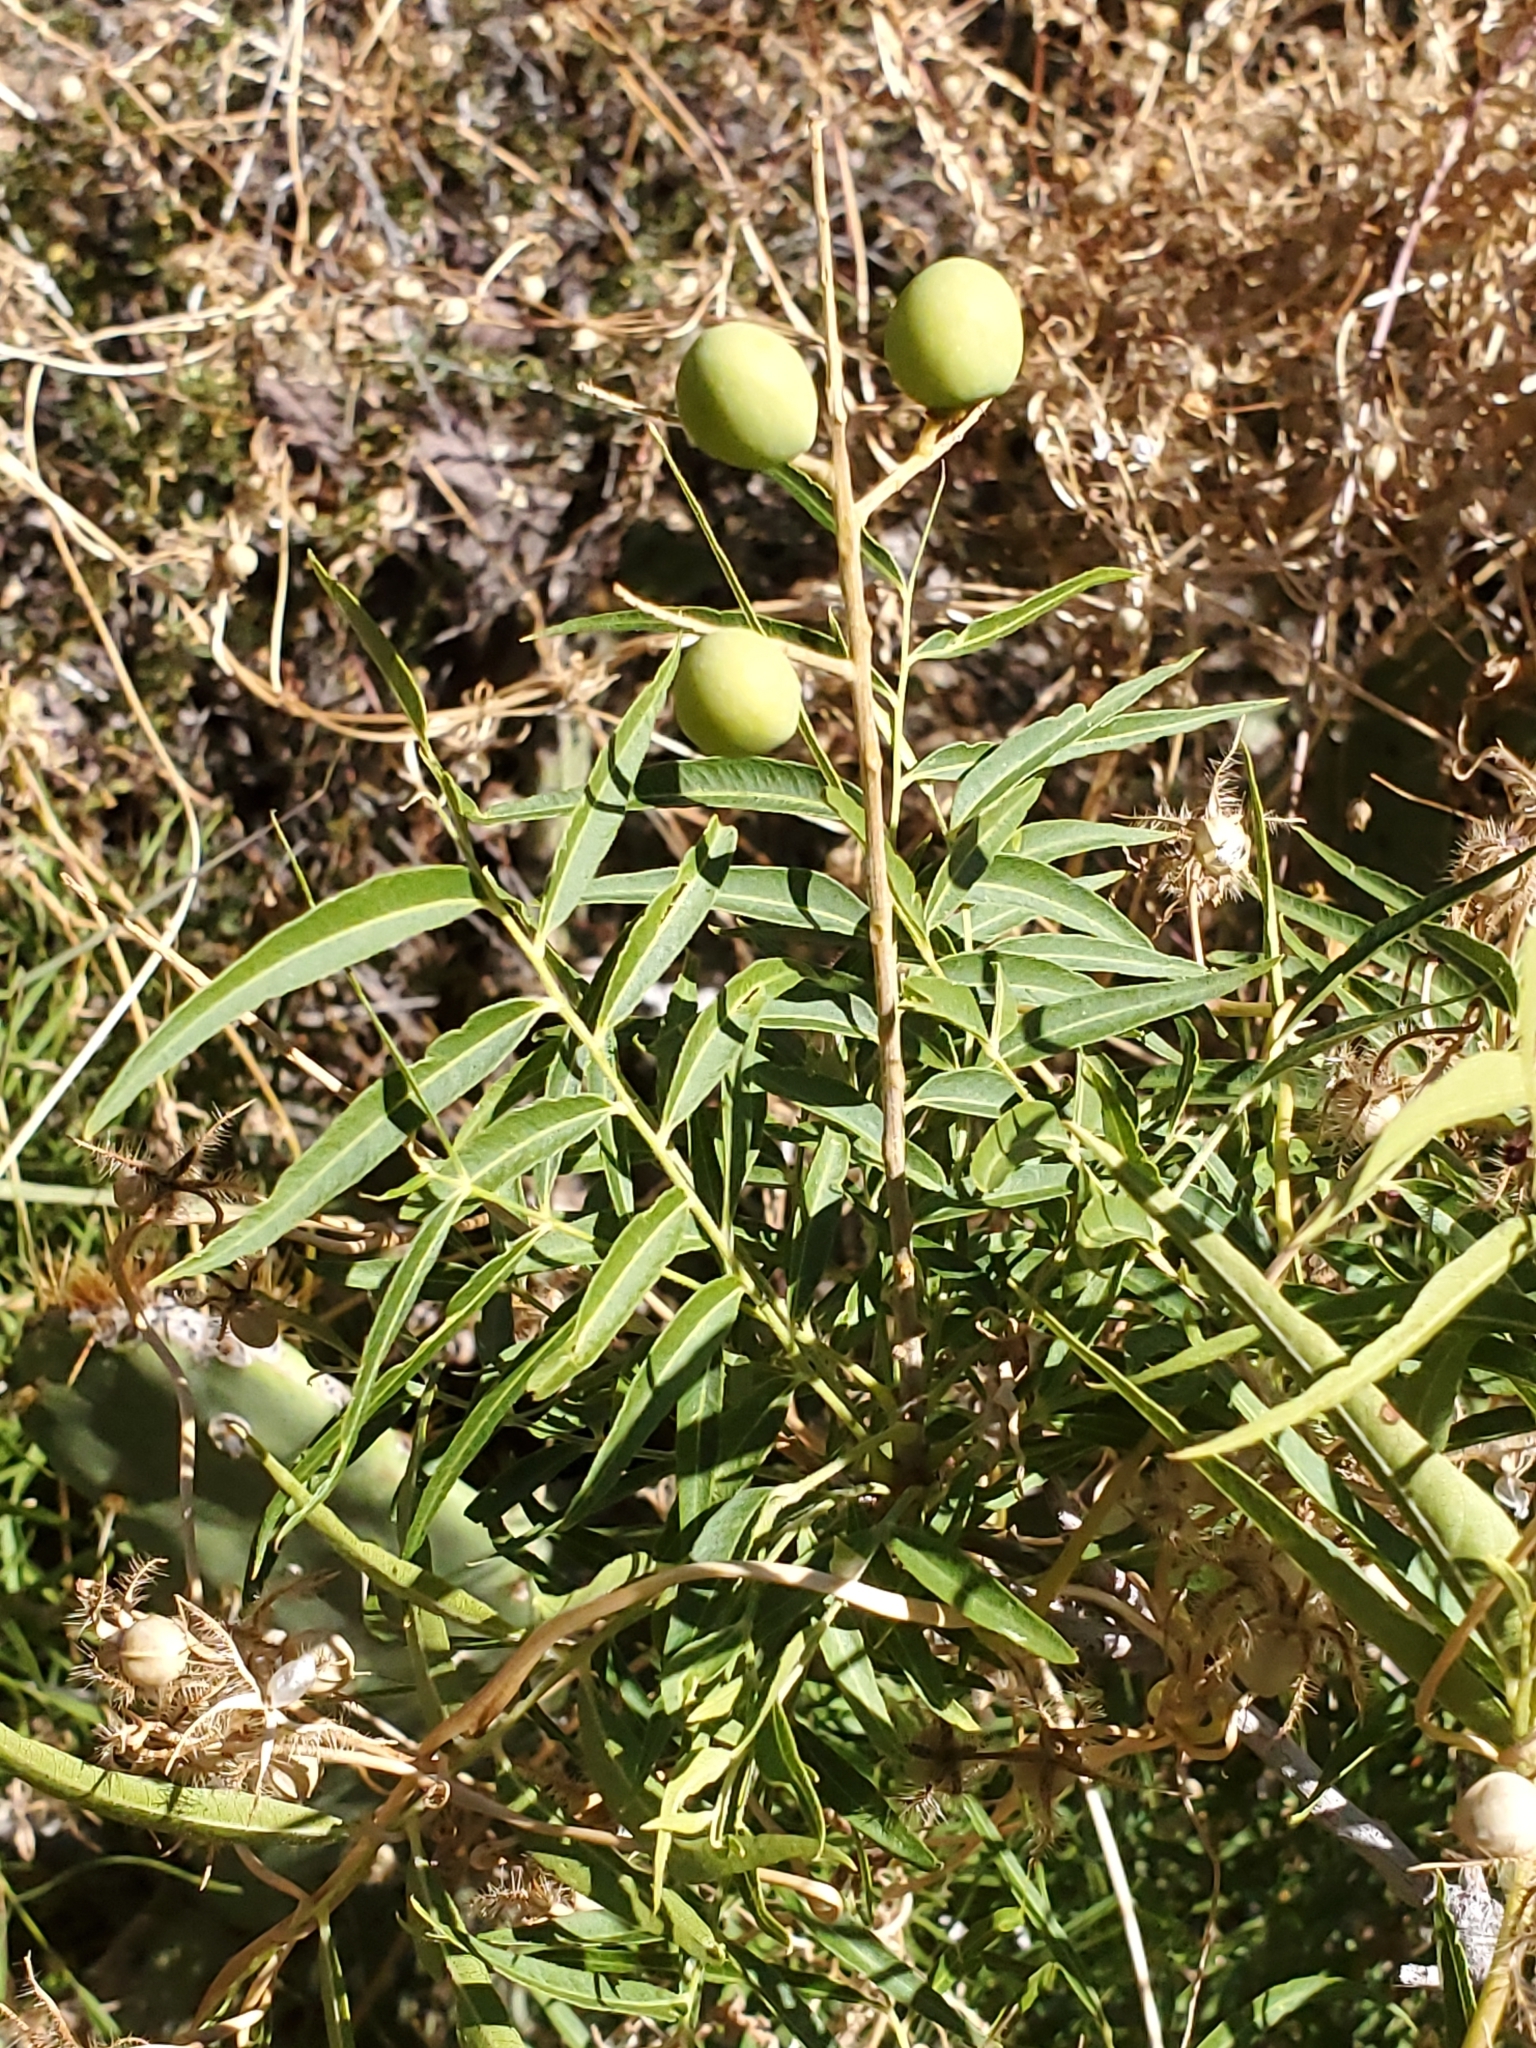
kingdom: Plantae
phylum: Tracheophyta
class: Magnoliopsida
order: Fagales
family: Juglandaceae
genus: Juglans
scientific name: Juglans major
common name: Arizona walnut
